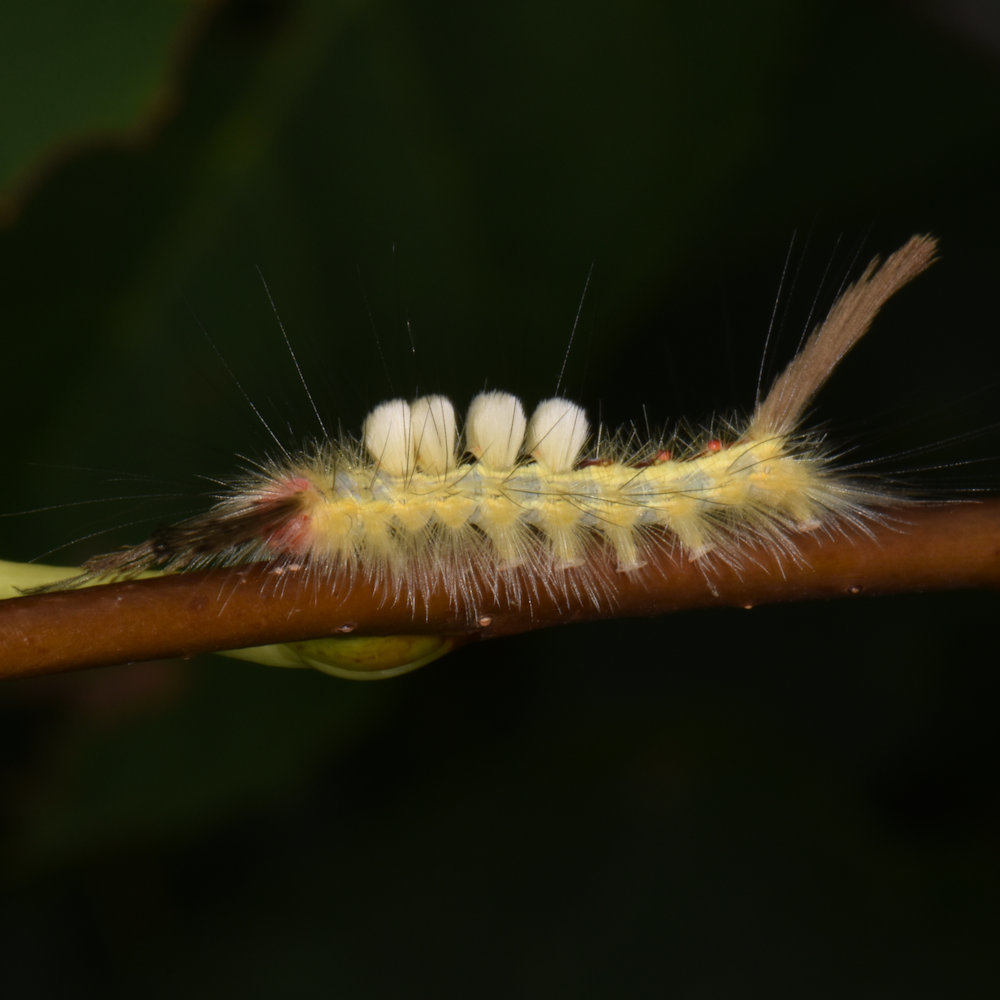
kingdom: Animalia
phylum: Arthropoda
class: Insecta
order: Lepidoptera
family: Erebidae
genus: Orgyia
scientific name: Orgyia leucostigma
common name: White-marked tussock moth
